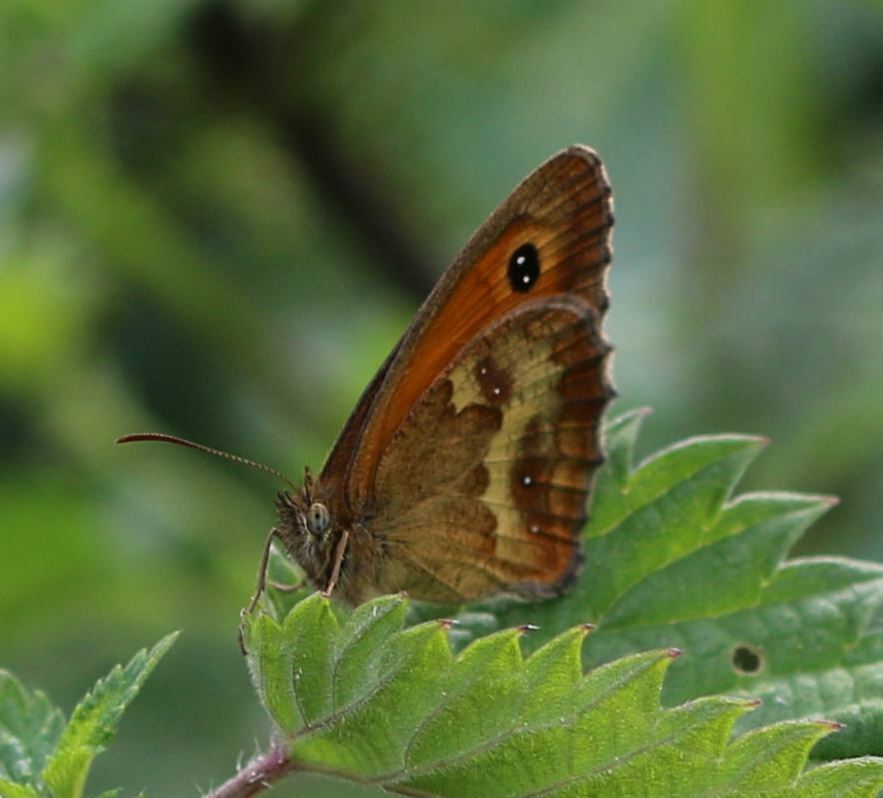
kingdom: Animalia
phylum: Arthropoda
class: Insecta
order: Lepidoptera
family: Nymphalidae
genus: Pyronia
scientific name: Pyronia tithonus
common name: Gatekeeper
